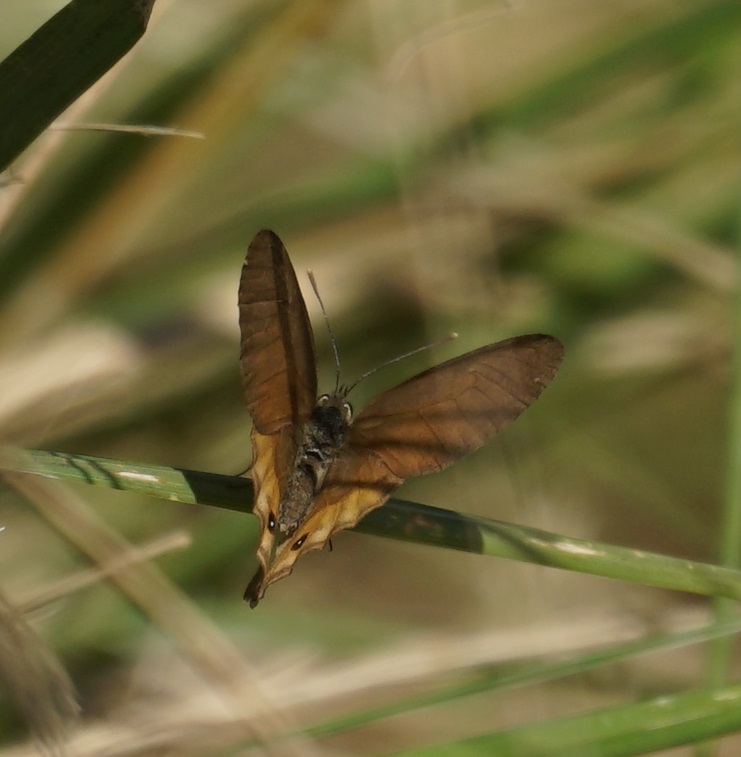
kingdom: Animalia
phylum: Arthropoda
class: Insecta
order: Lepidoptera
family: Nymphalidae
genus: Hypocysta
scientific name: Hypocysta metirius
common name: Brown ringlet
